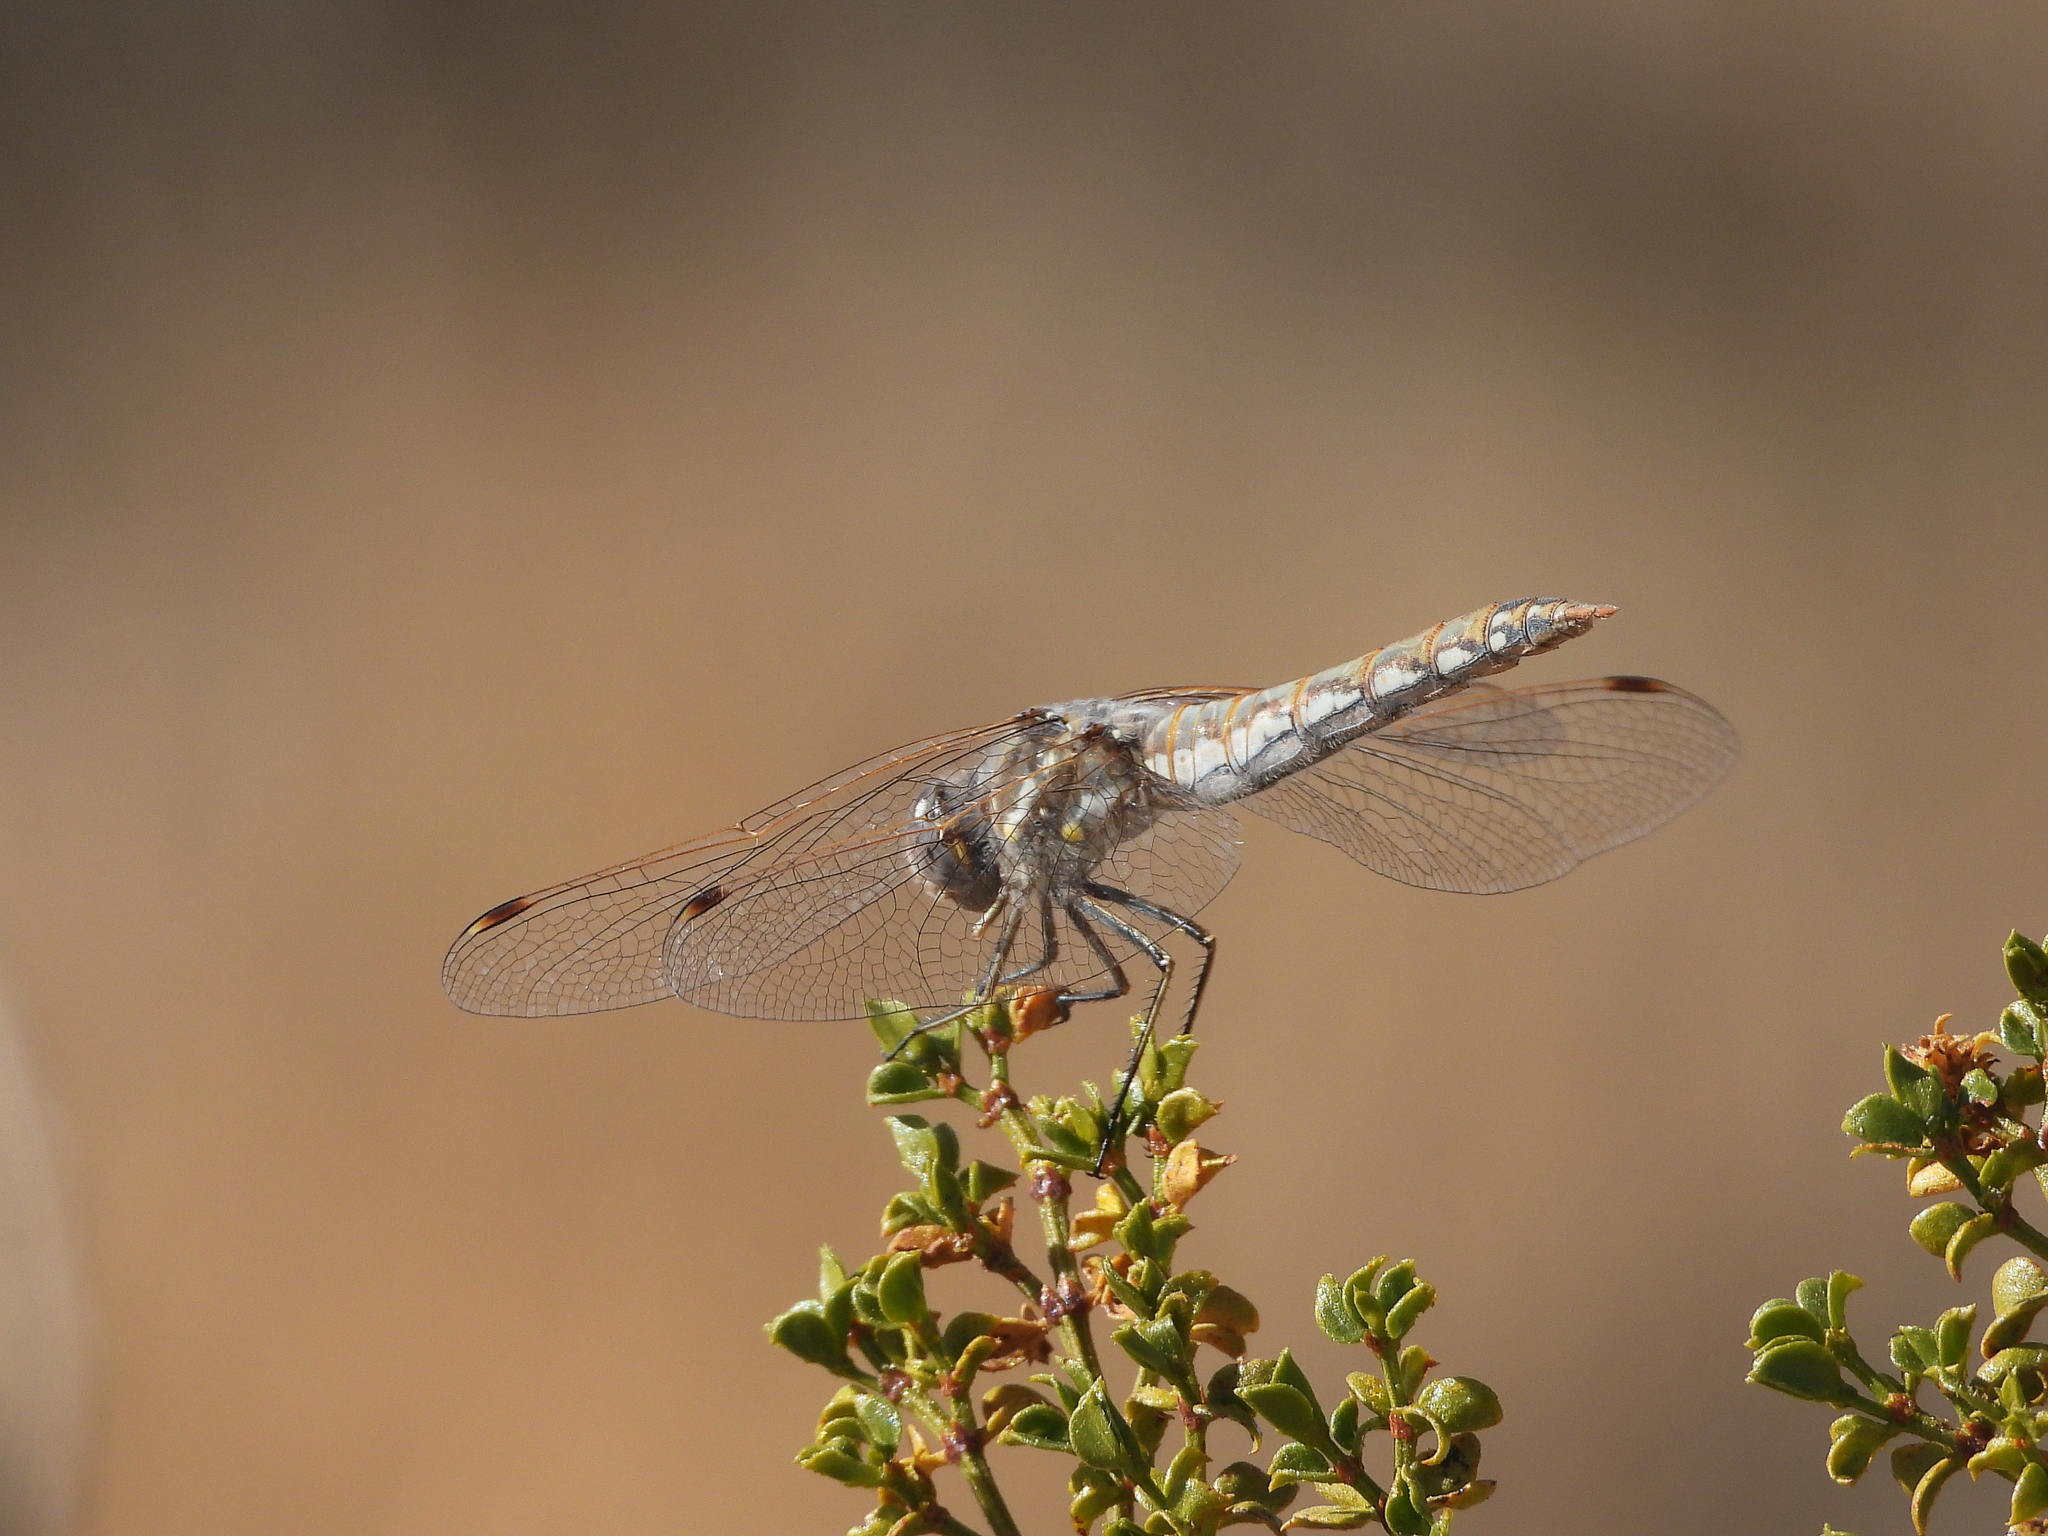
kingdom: Animalia
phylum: Arthropoda
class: Insecta
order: Odonata
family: Libellulidae
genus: Sympetrum
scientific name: Sympetrum corruptum
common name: Variegated meadowhawk
